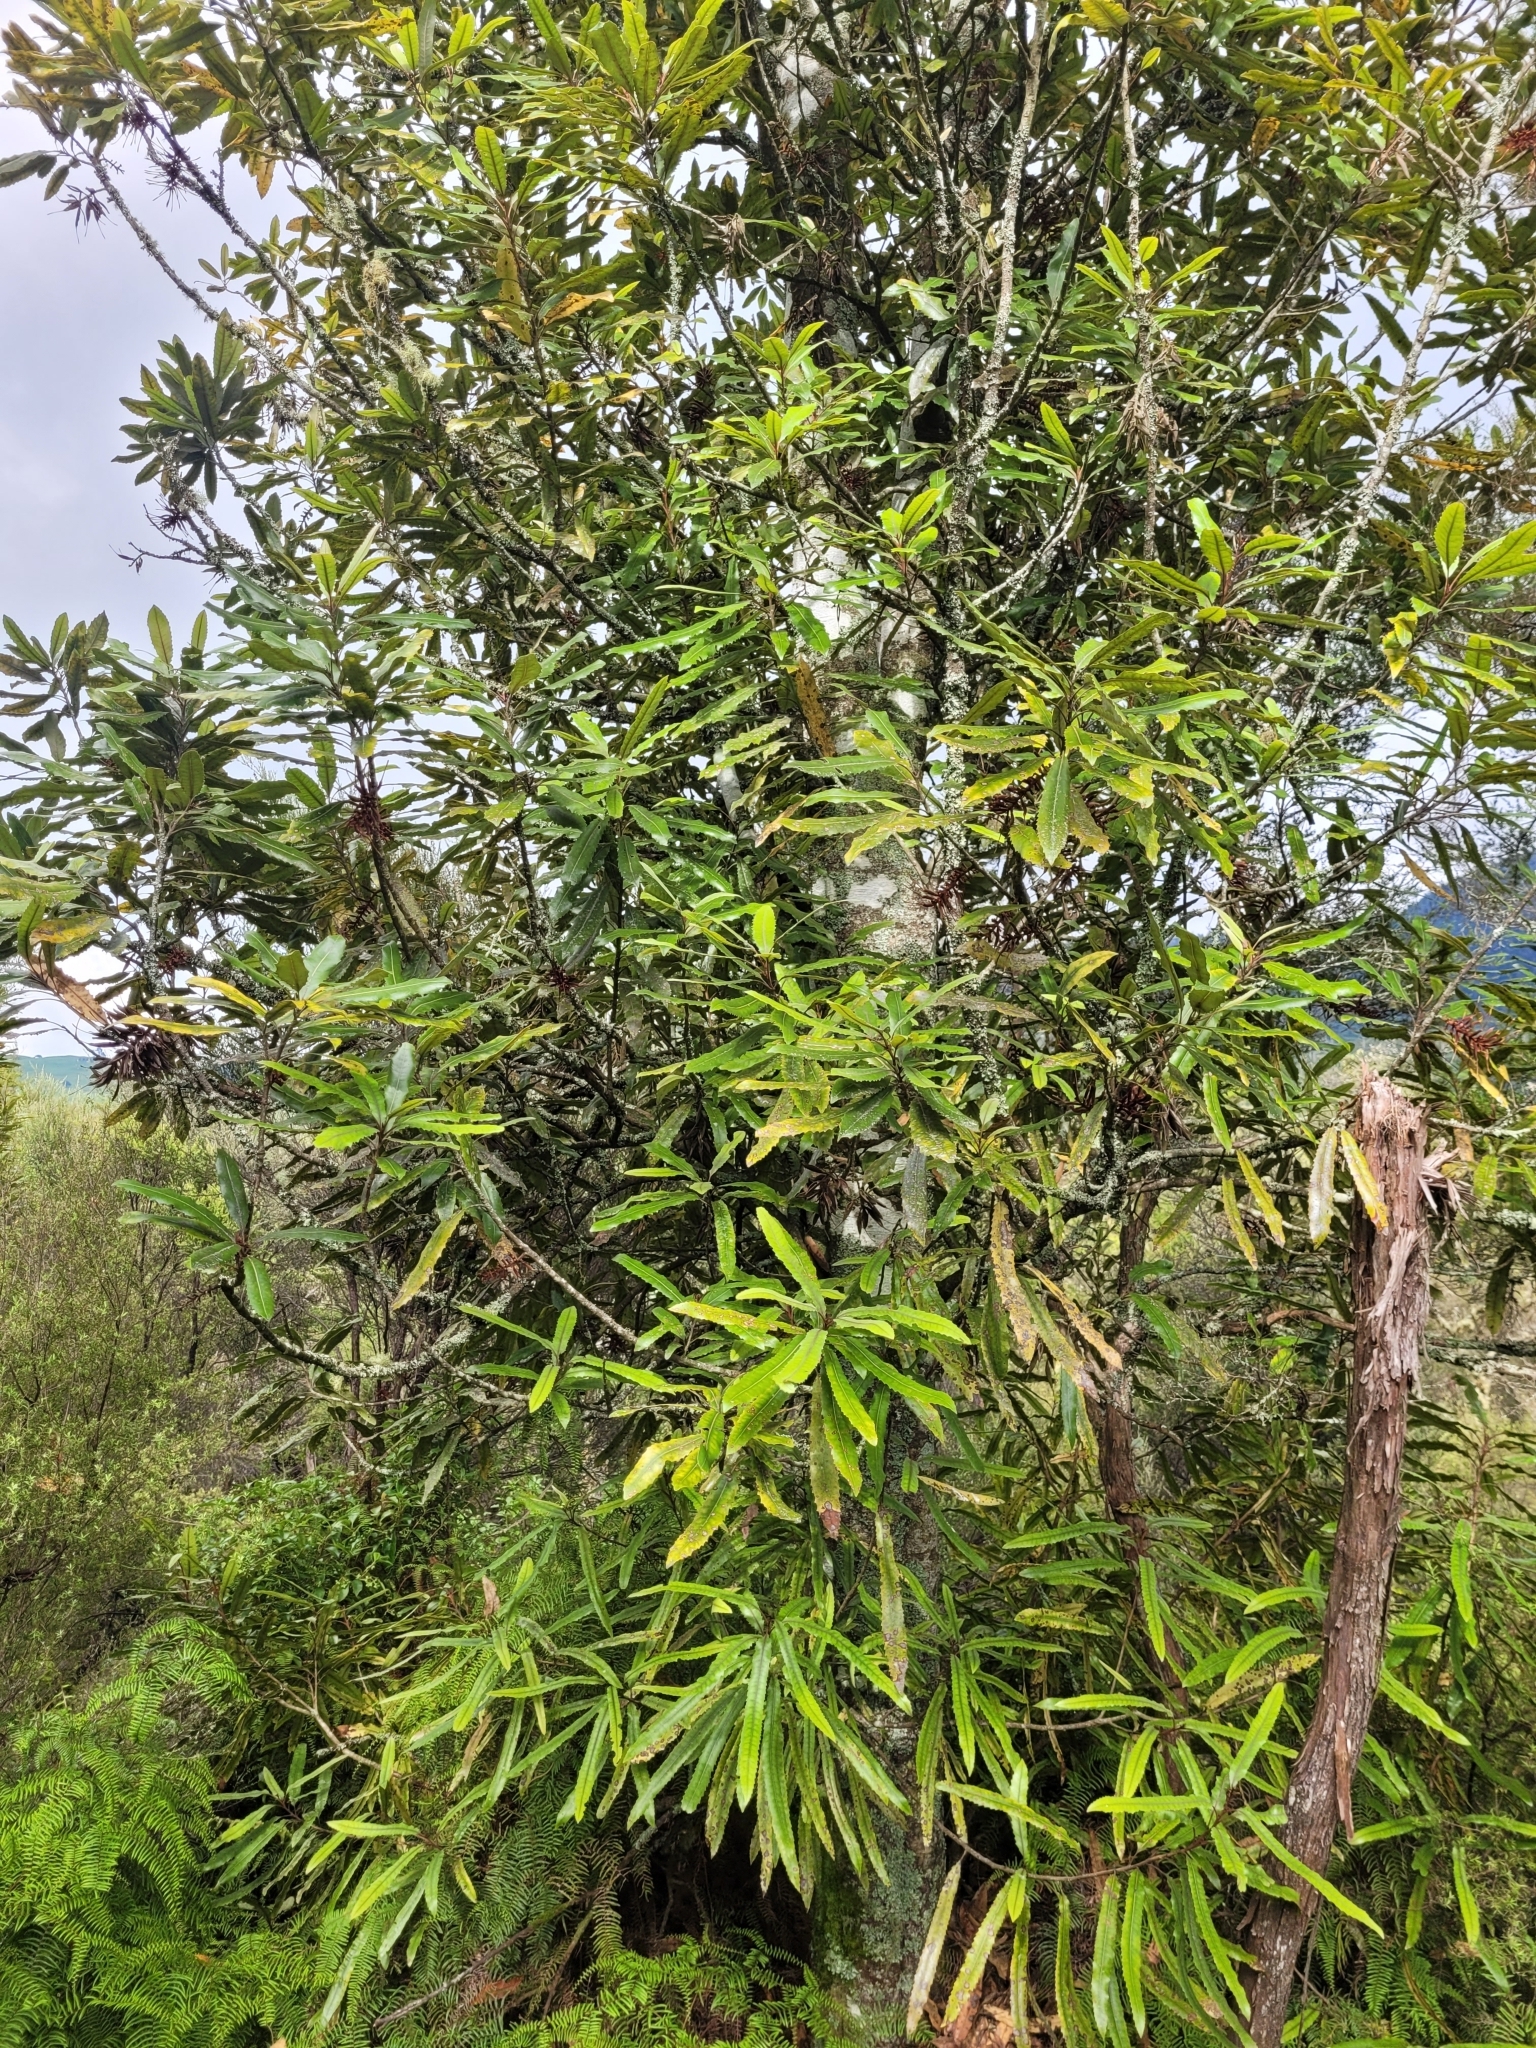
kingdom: Plantae
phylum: Tracheophyta
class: Magnoliopsida
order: Proteales
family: Proteaceae
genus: Knightia
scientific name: Knightia excelsa
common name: New zealand-honeysuckle
